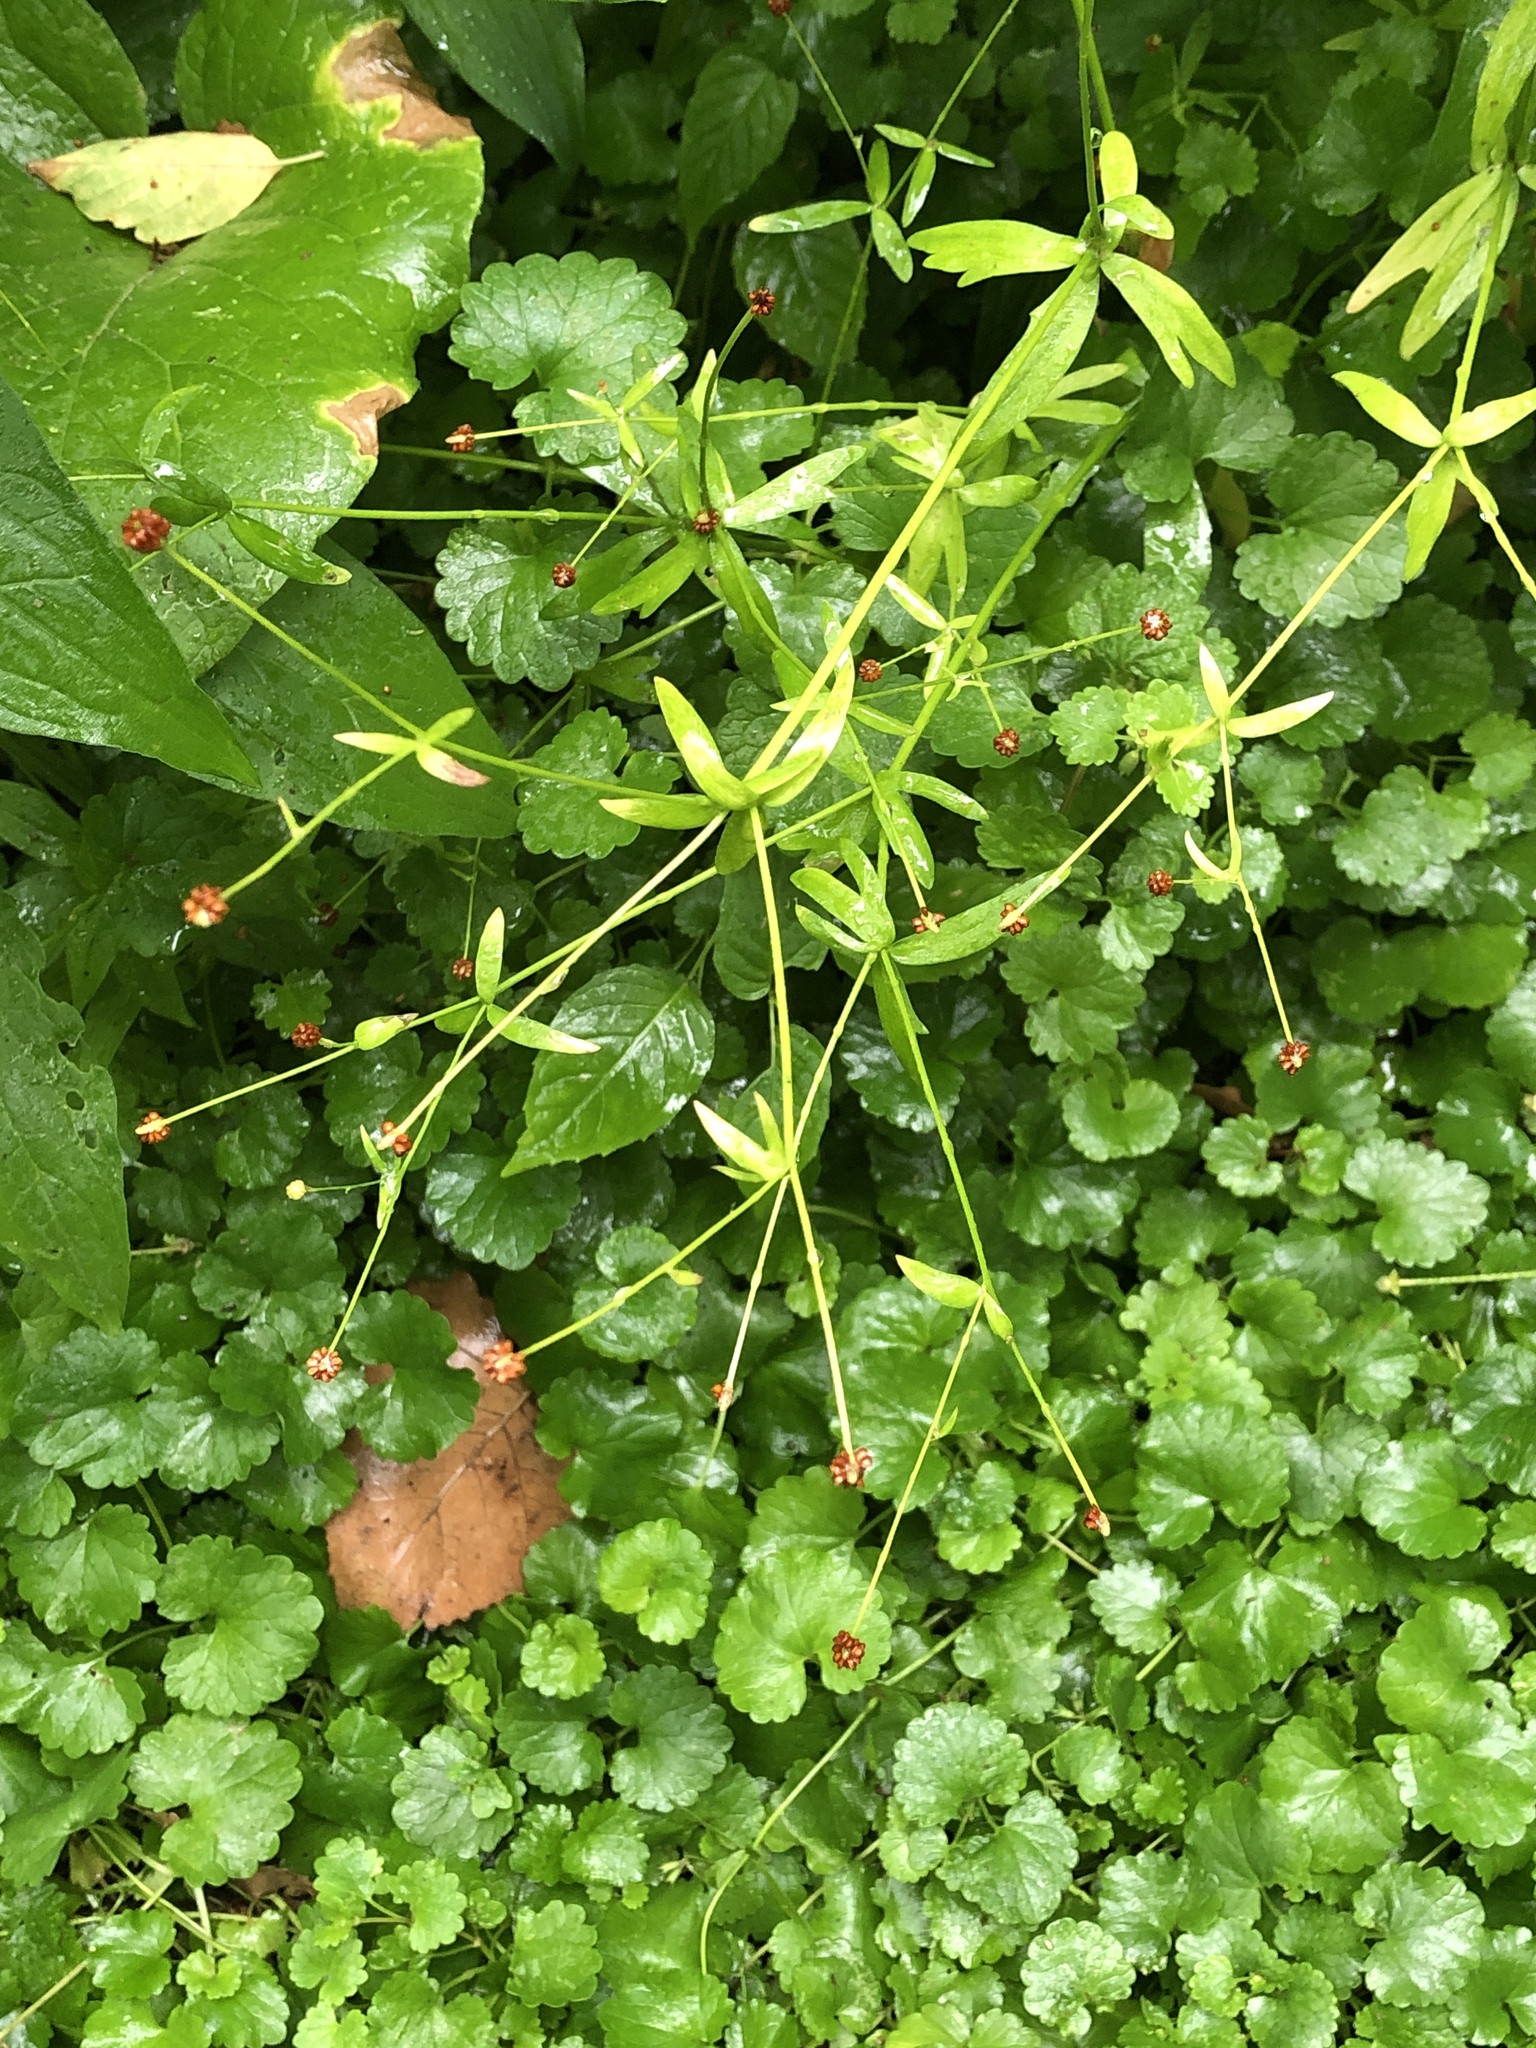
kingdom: Plantae
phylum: Tracheophyta
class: Magnoliopsida
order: Ranunculales
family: Ranunculaceae
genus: Ranunculus
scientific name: Ranunculus abortivus
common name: Early wood buttercup
